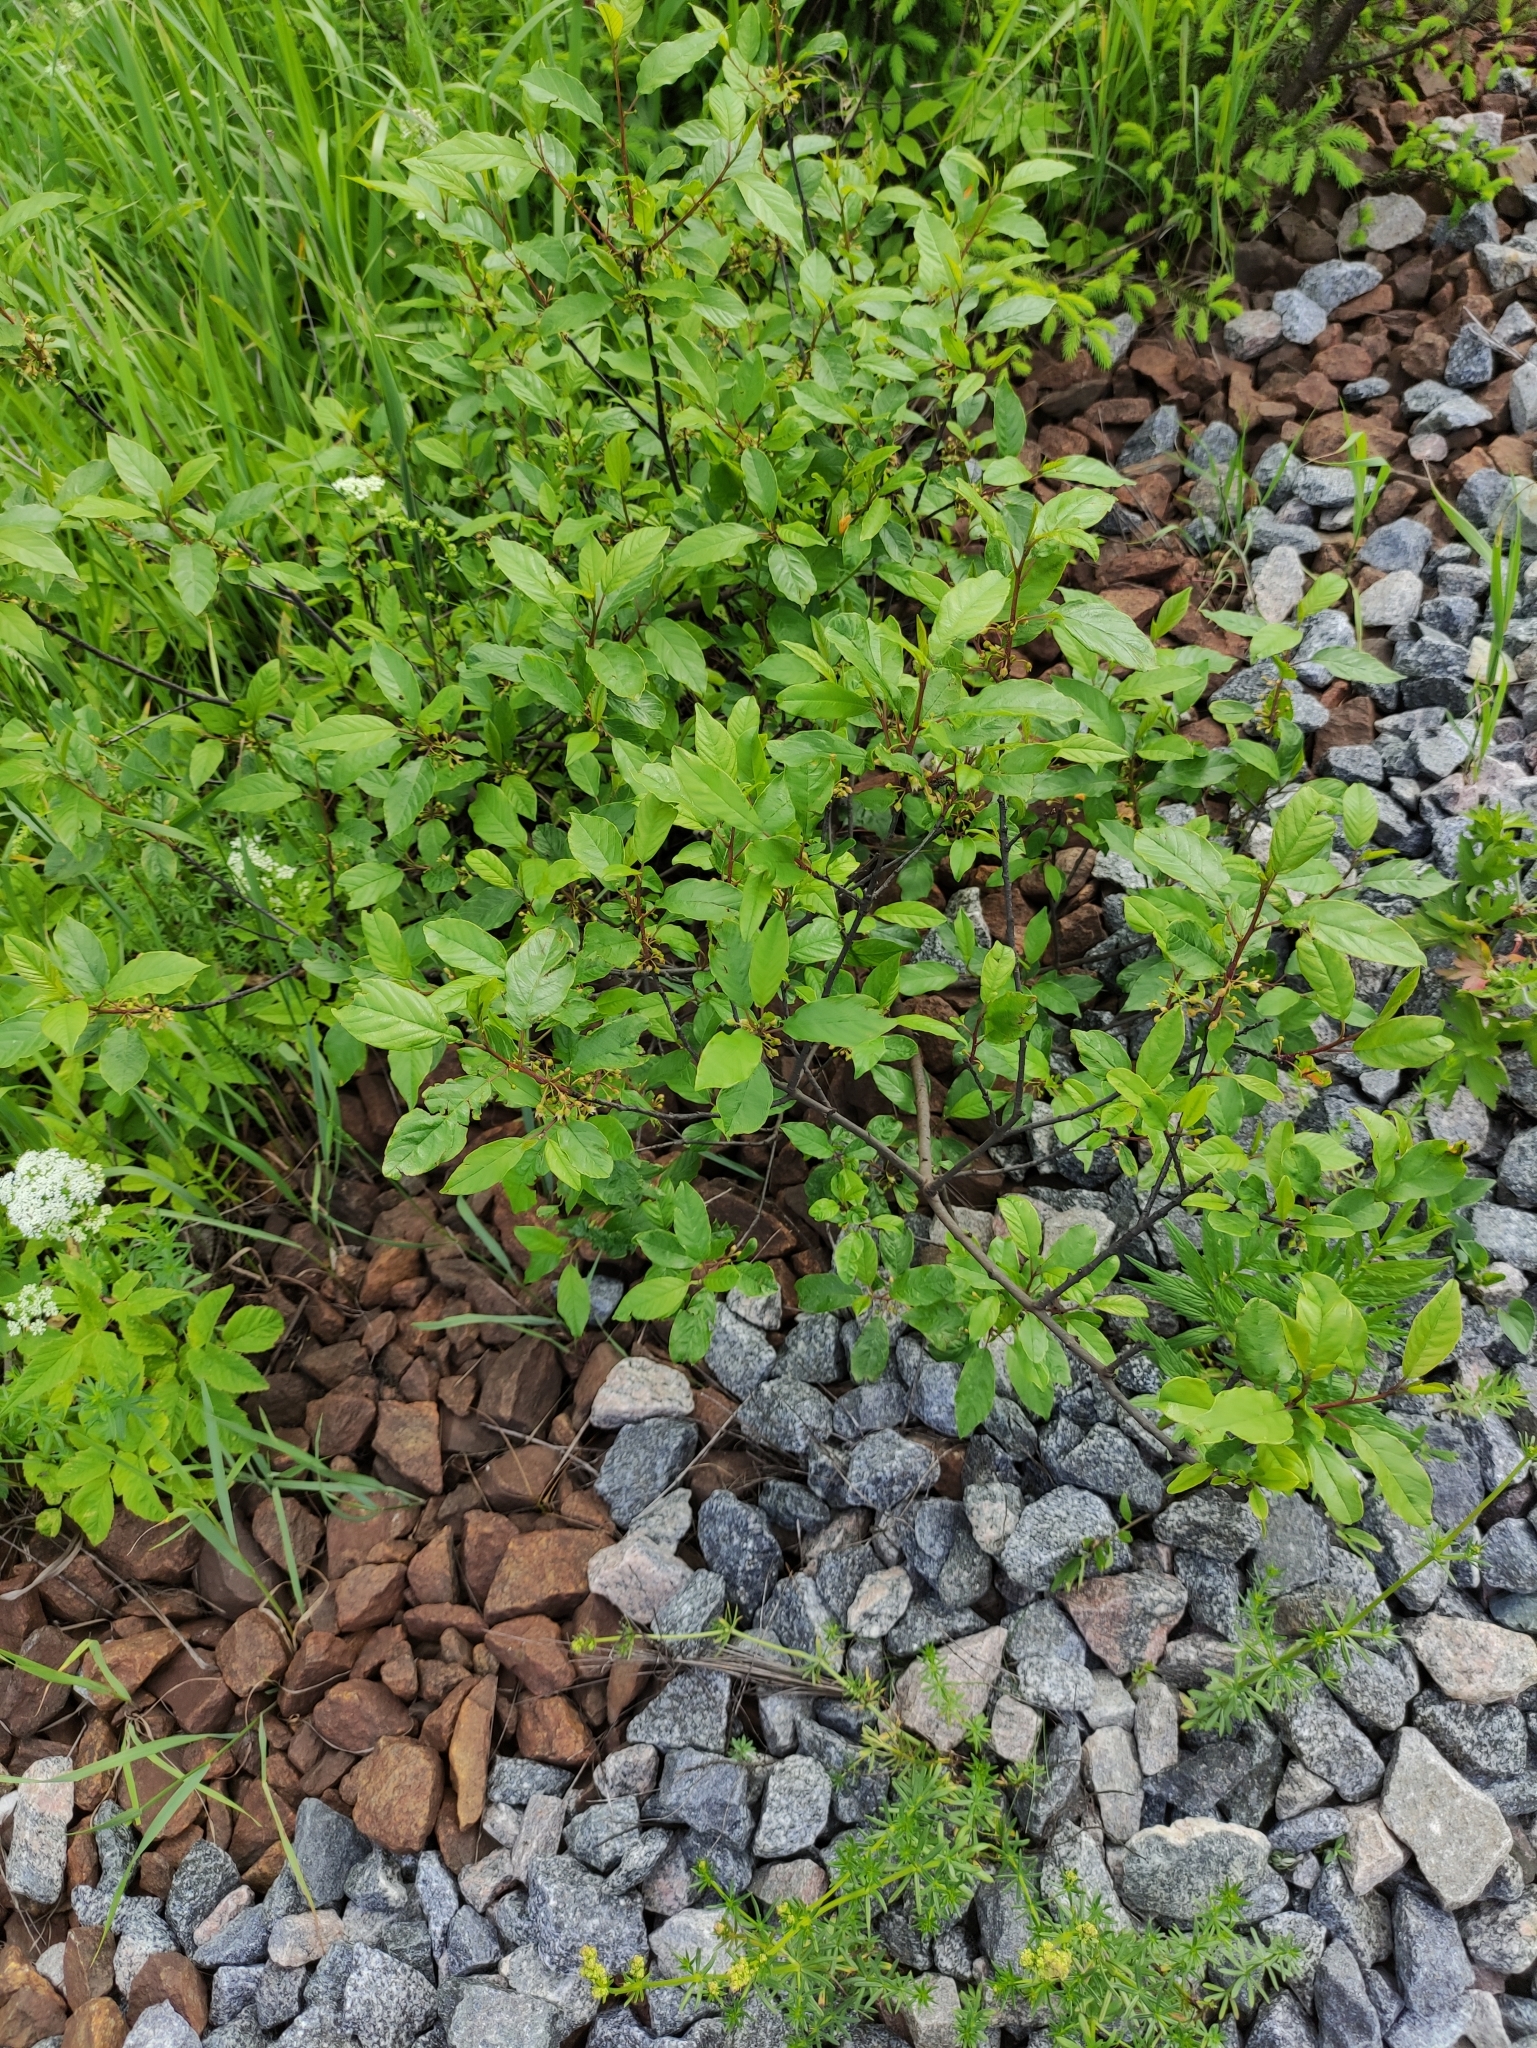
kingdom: Plantae
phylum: Tracheophyta
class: Magnoliopsida
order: Rosales
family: Rhamnaceae
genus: Frangula
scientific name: Frangula alnus
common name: Alder buckthorn
